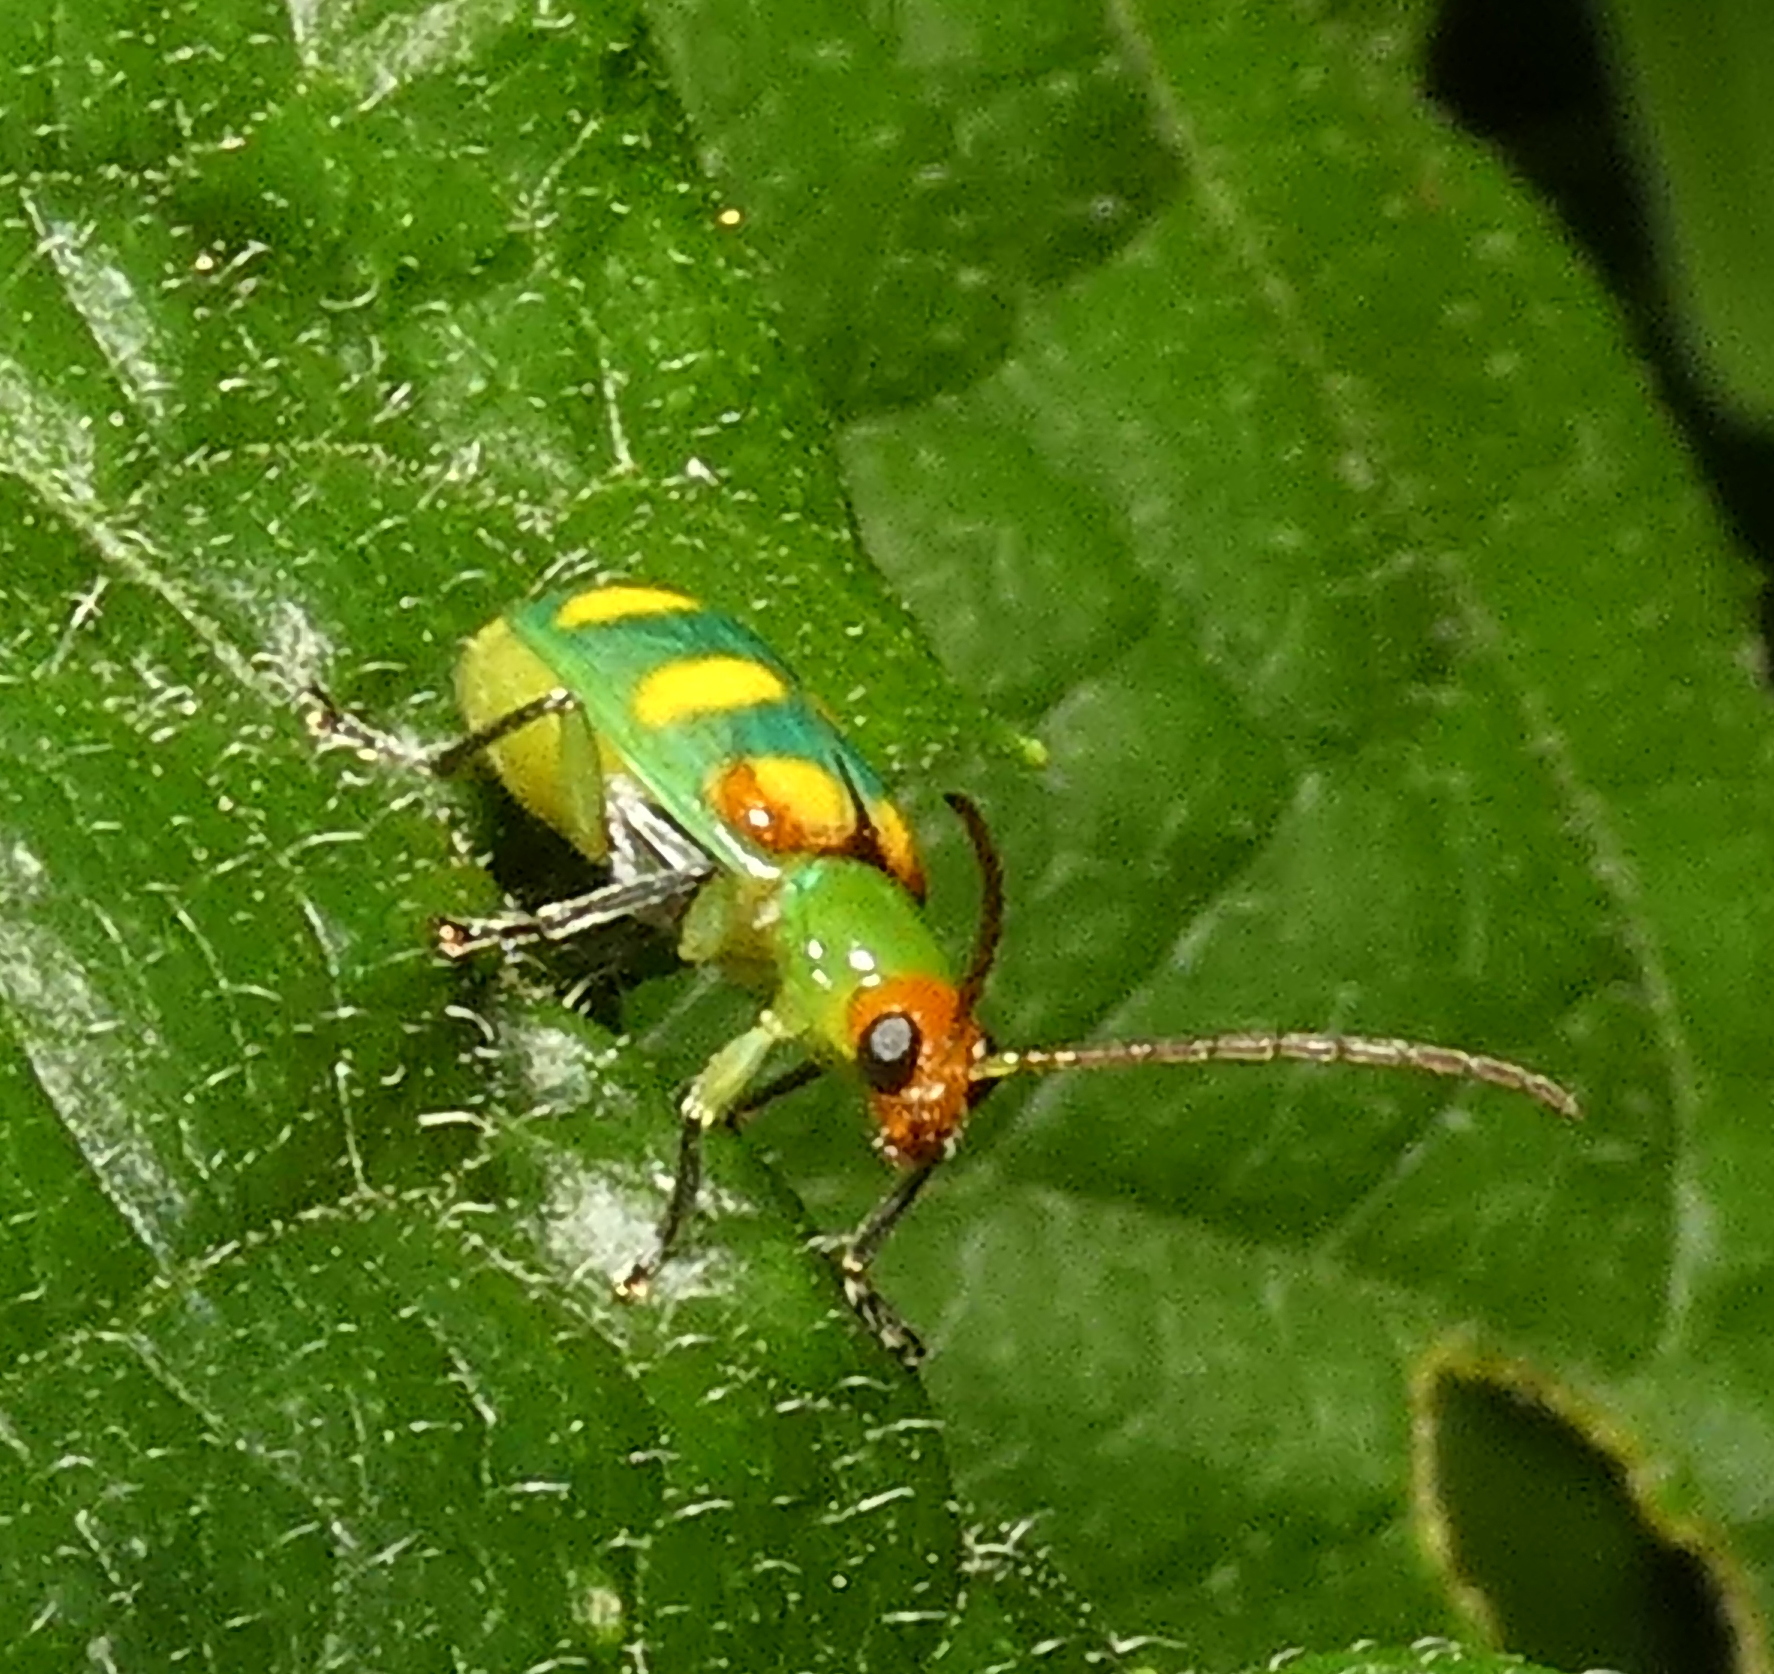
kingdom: Animalia
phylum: Arthropoda
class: Insecta
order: Coleoptera
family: Chrysomelidae
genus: Diabrotica
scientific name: Diabrotica speciosa
